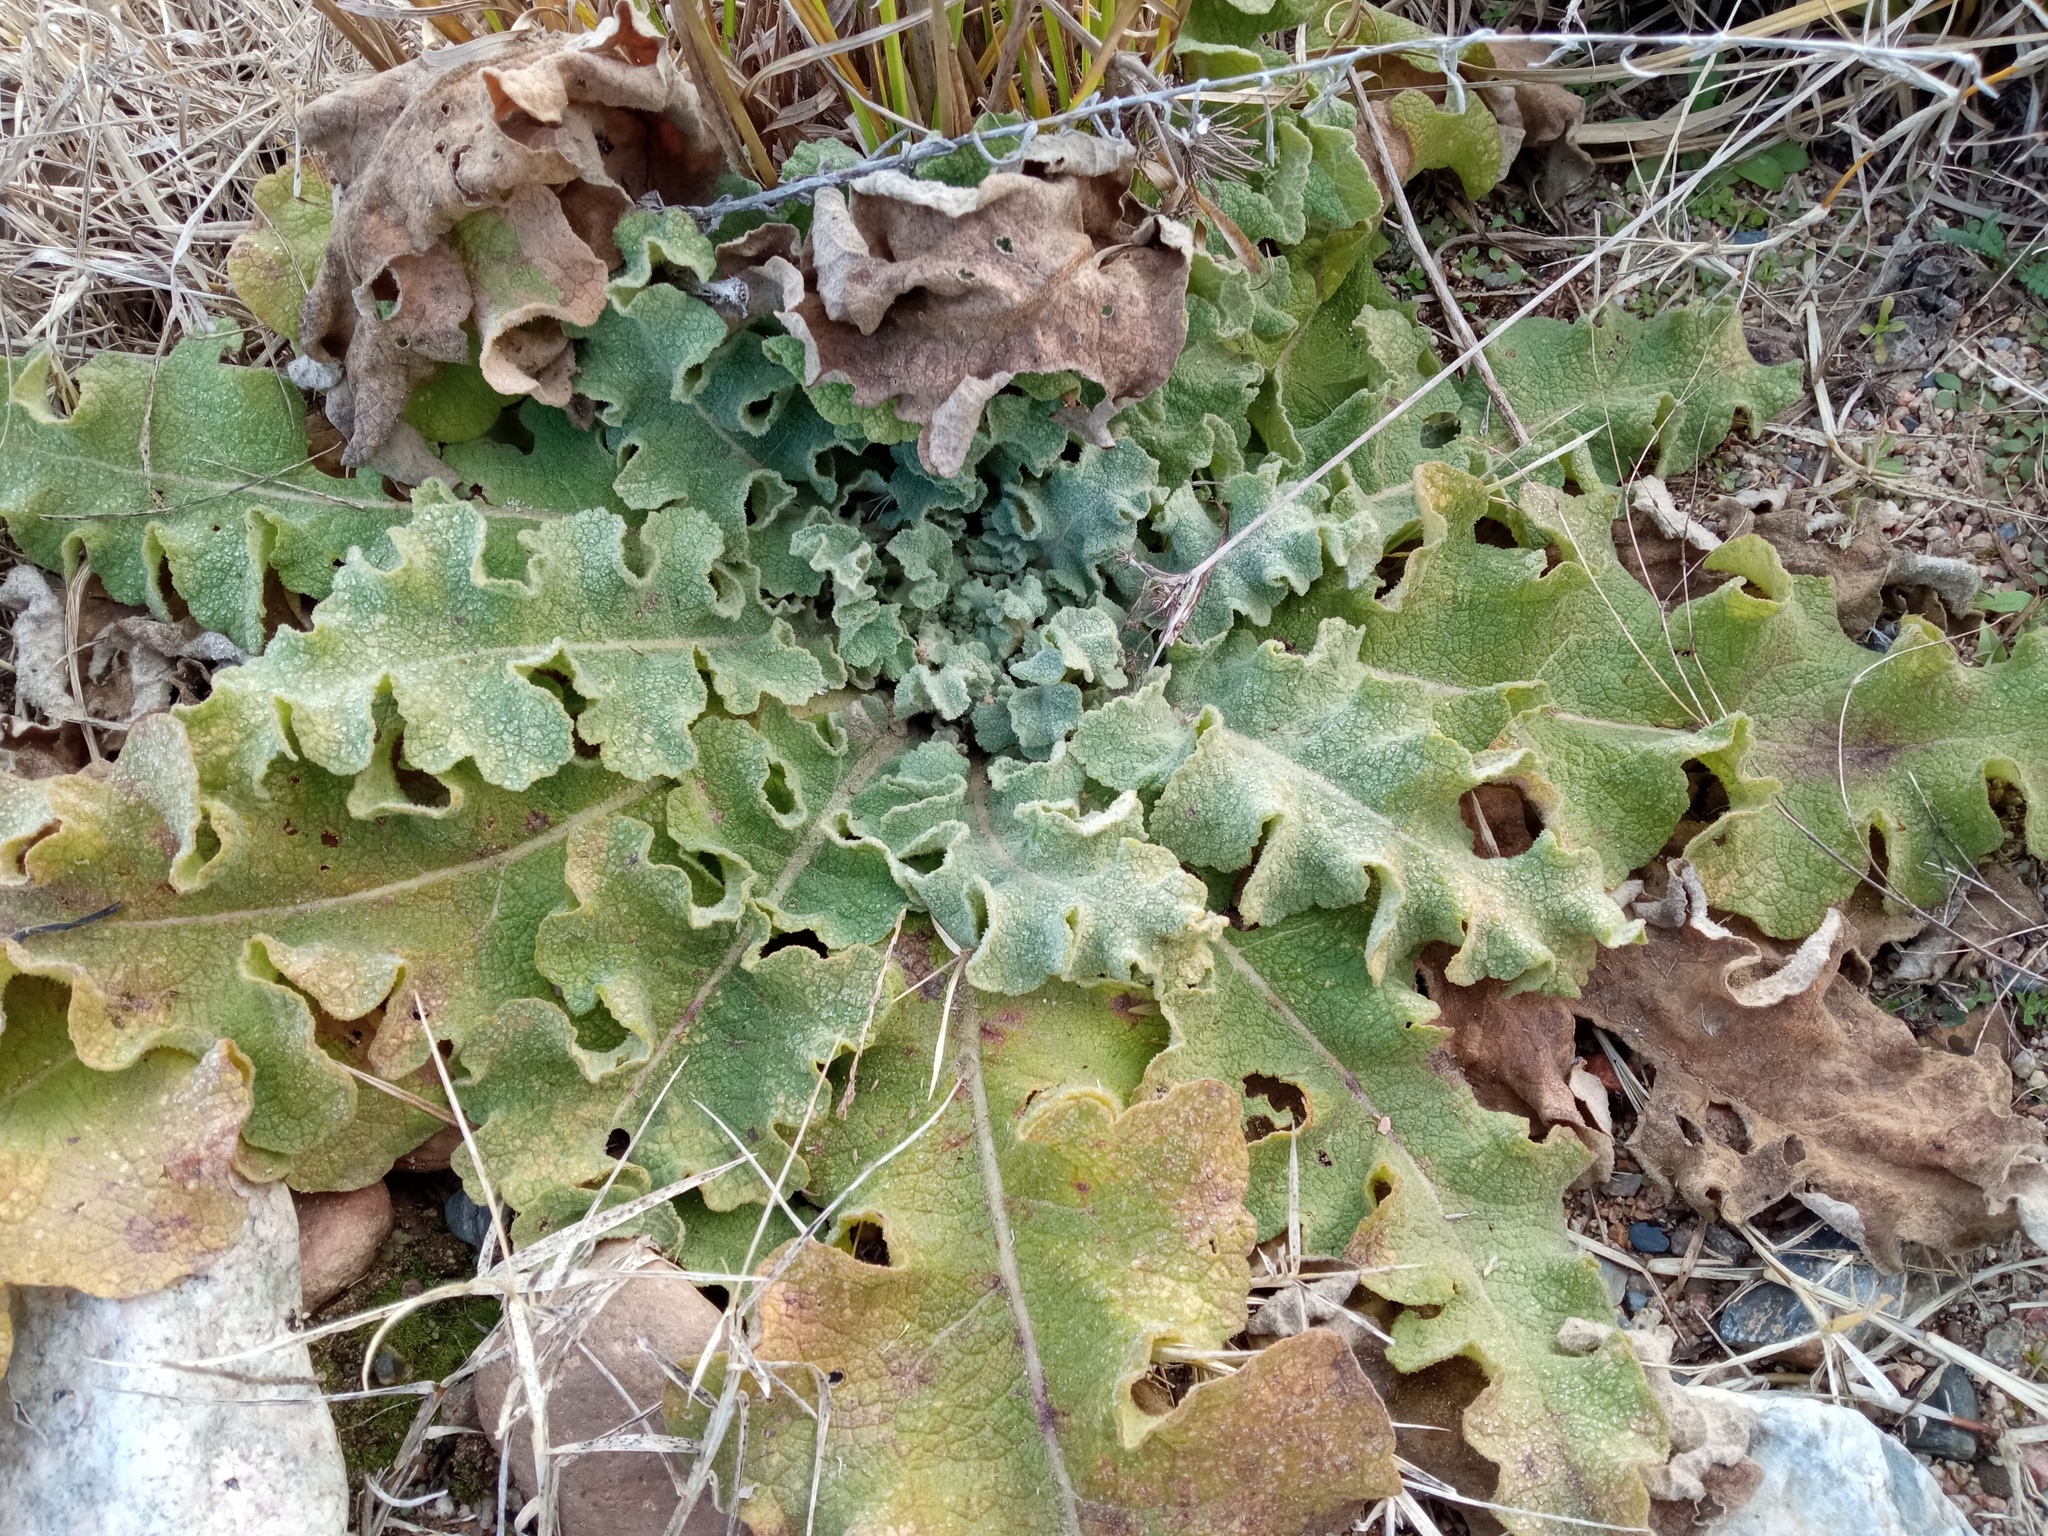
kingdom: Plantae
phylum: Tracheophyta
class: Magnoliopsida
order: Lamiales
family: Scrophulariaceae
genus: Verbascum
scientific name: Verbascum sinuatum
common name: Wavyleaf mullein
